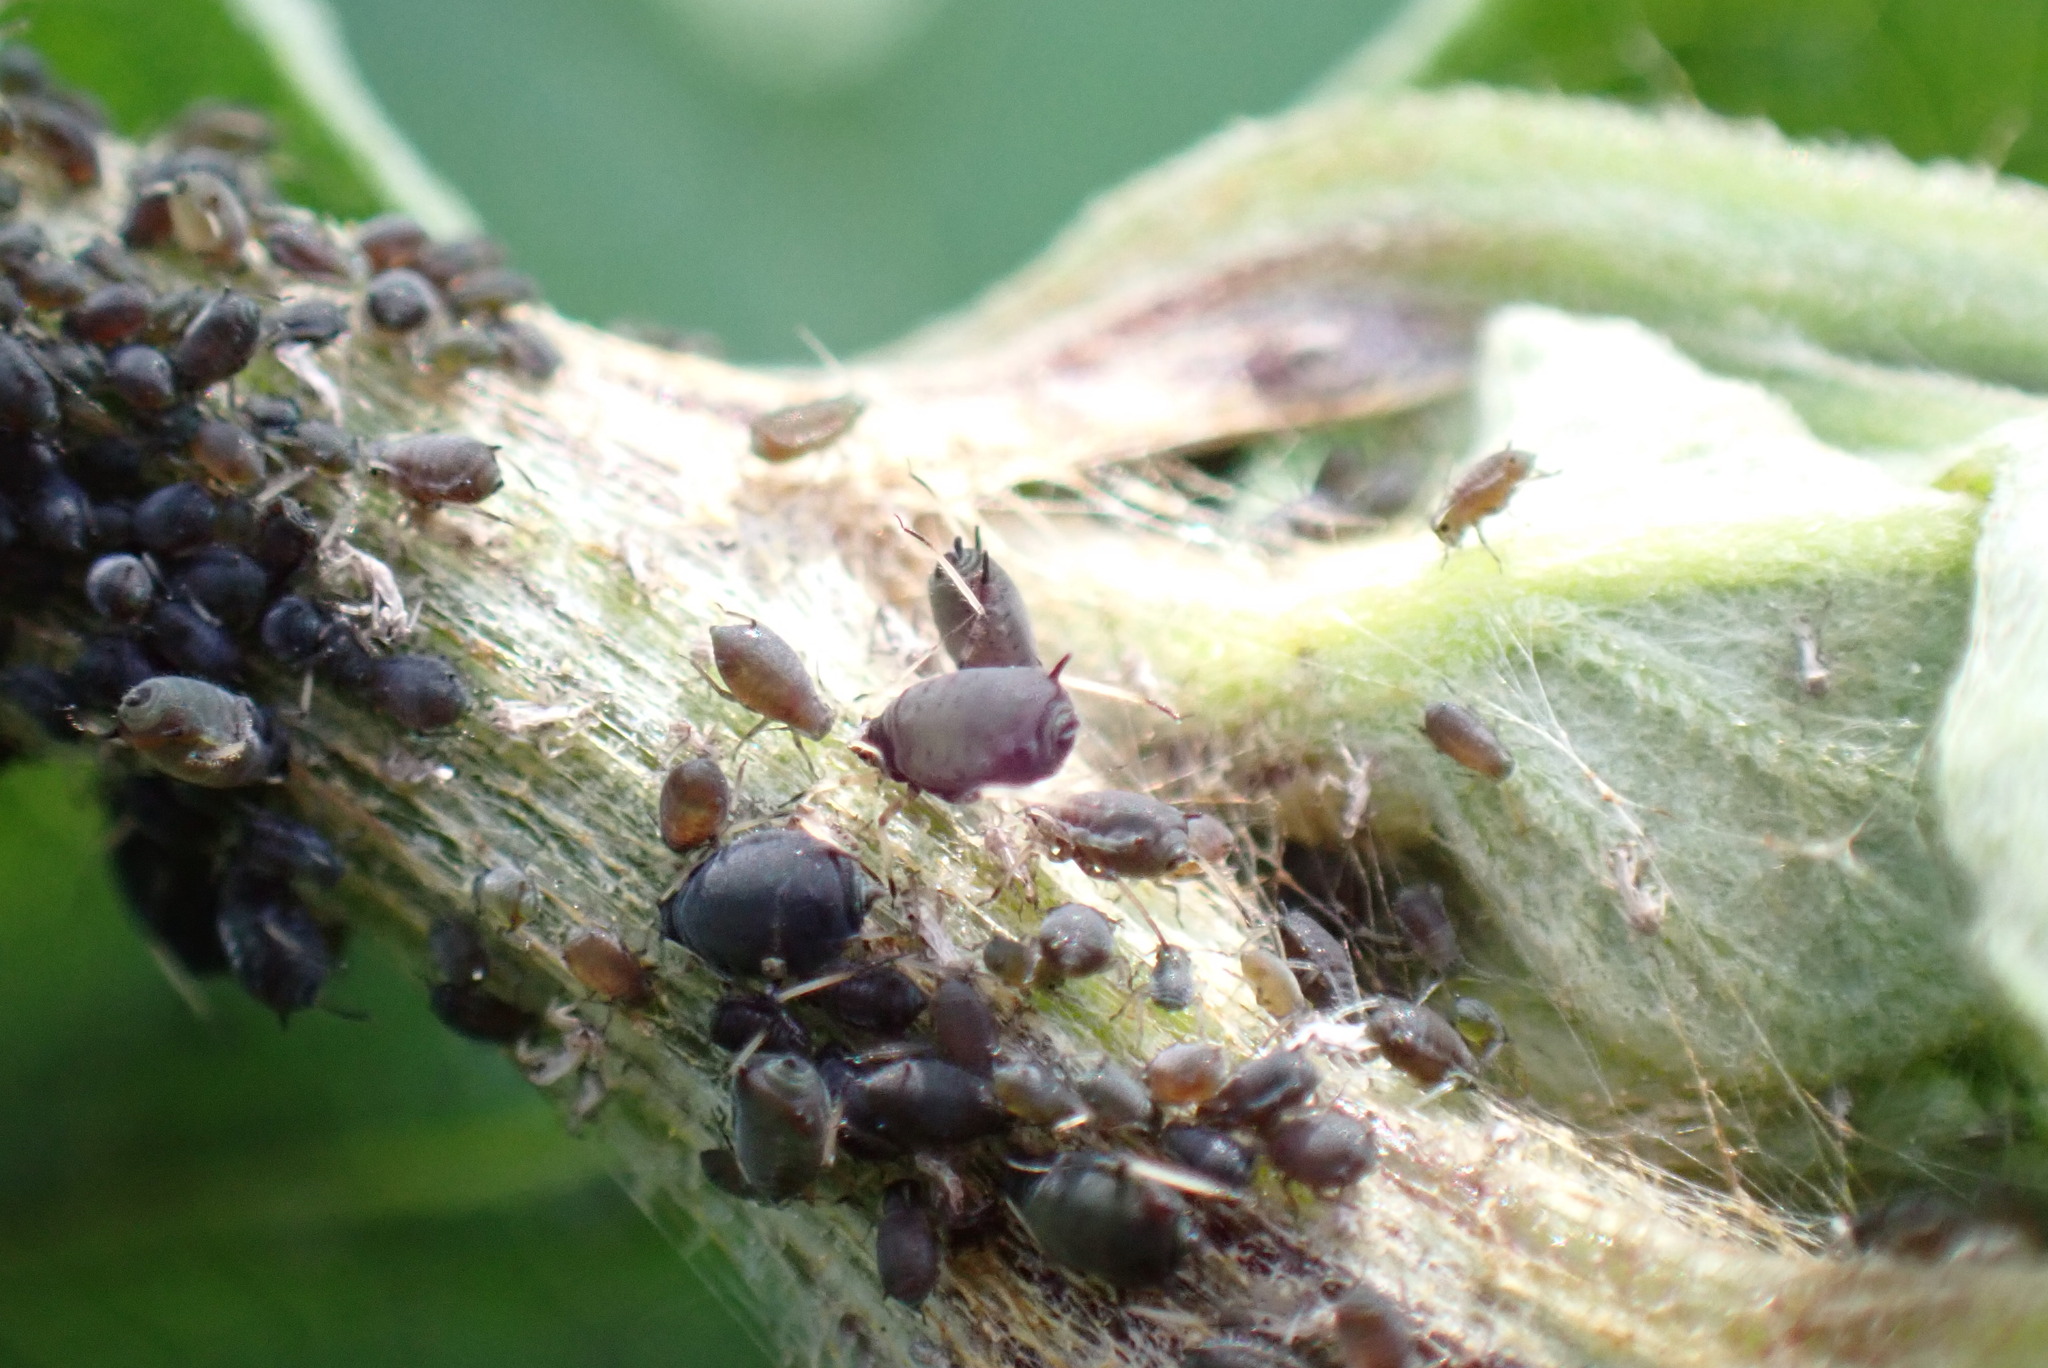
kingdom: Animalia
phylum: Arthropoda
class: Insecta
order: Hemiptera
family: Aphididae
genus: Aphis
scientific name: Aphis fabae
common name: Bean aphid
